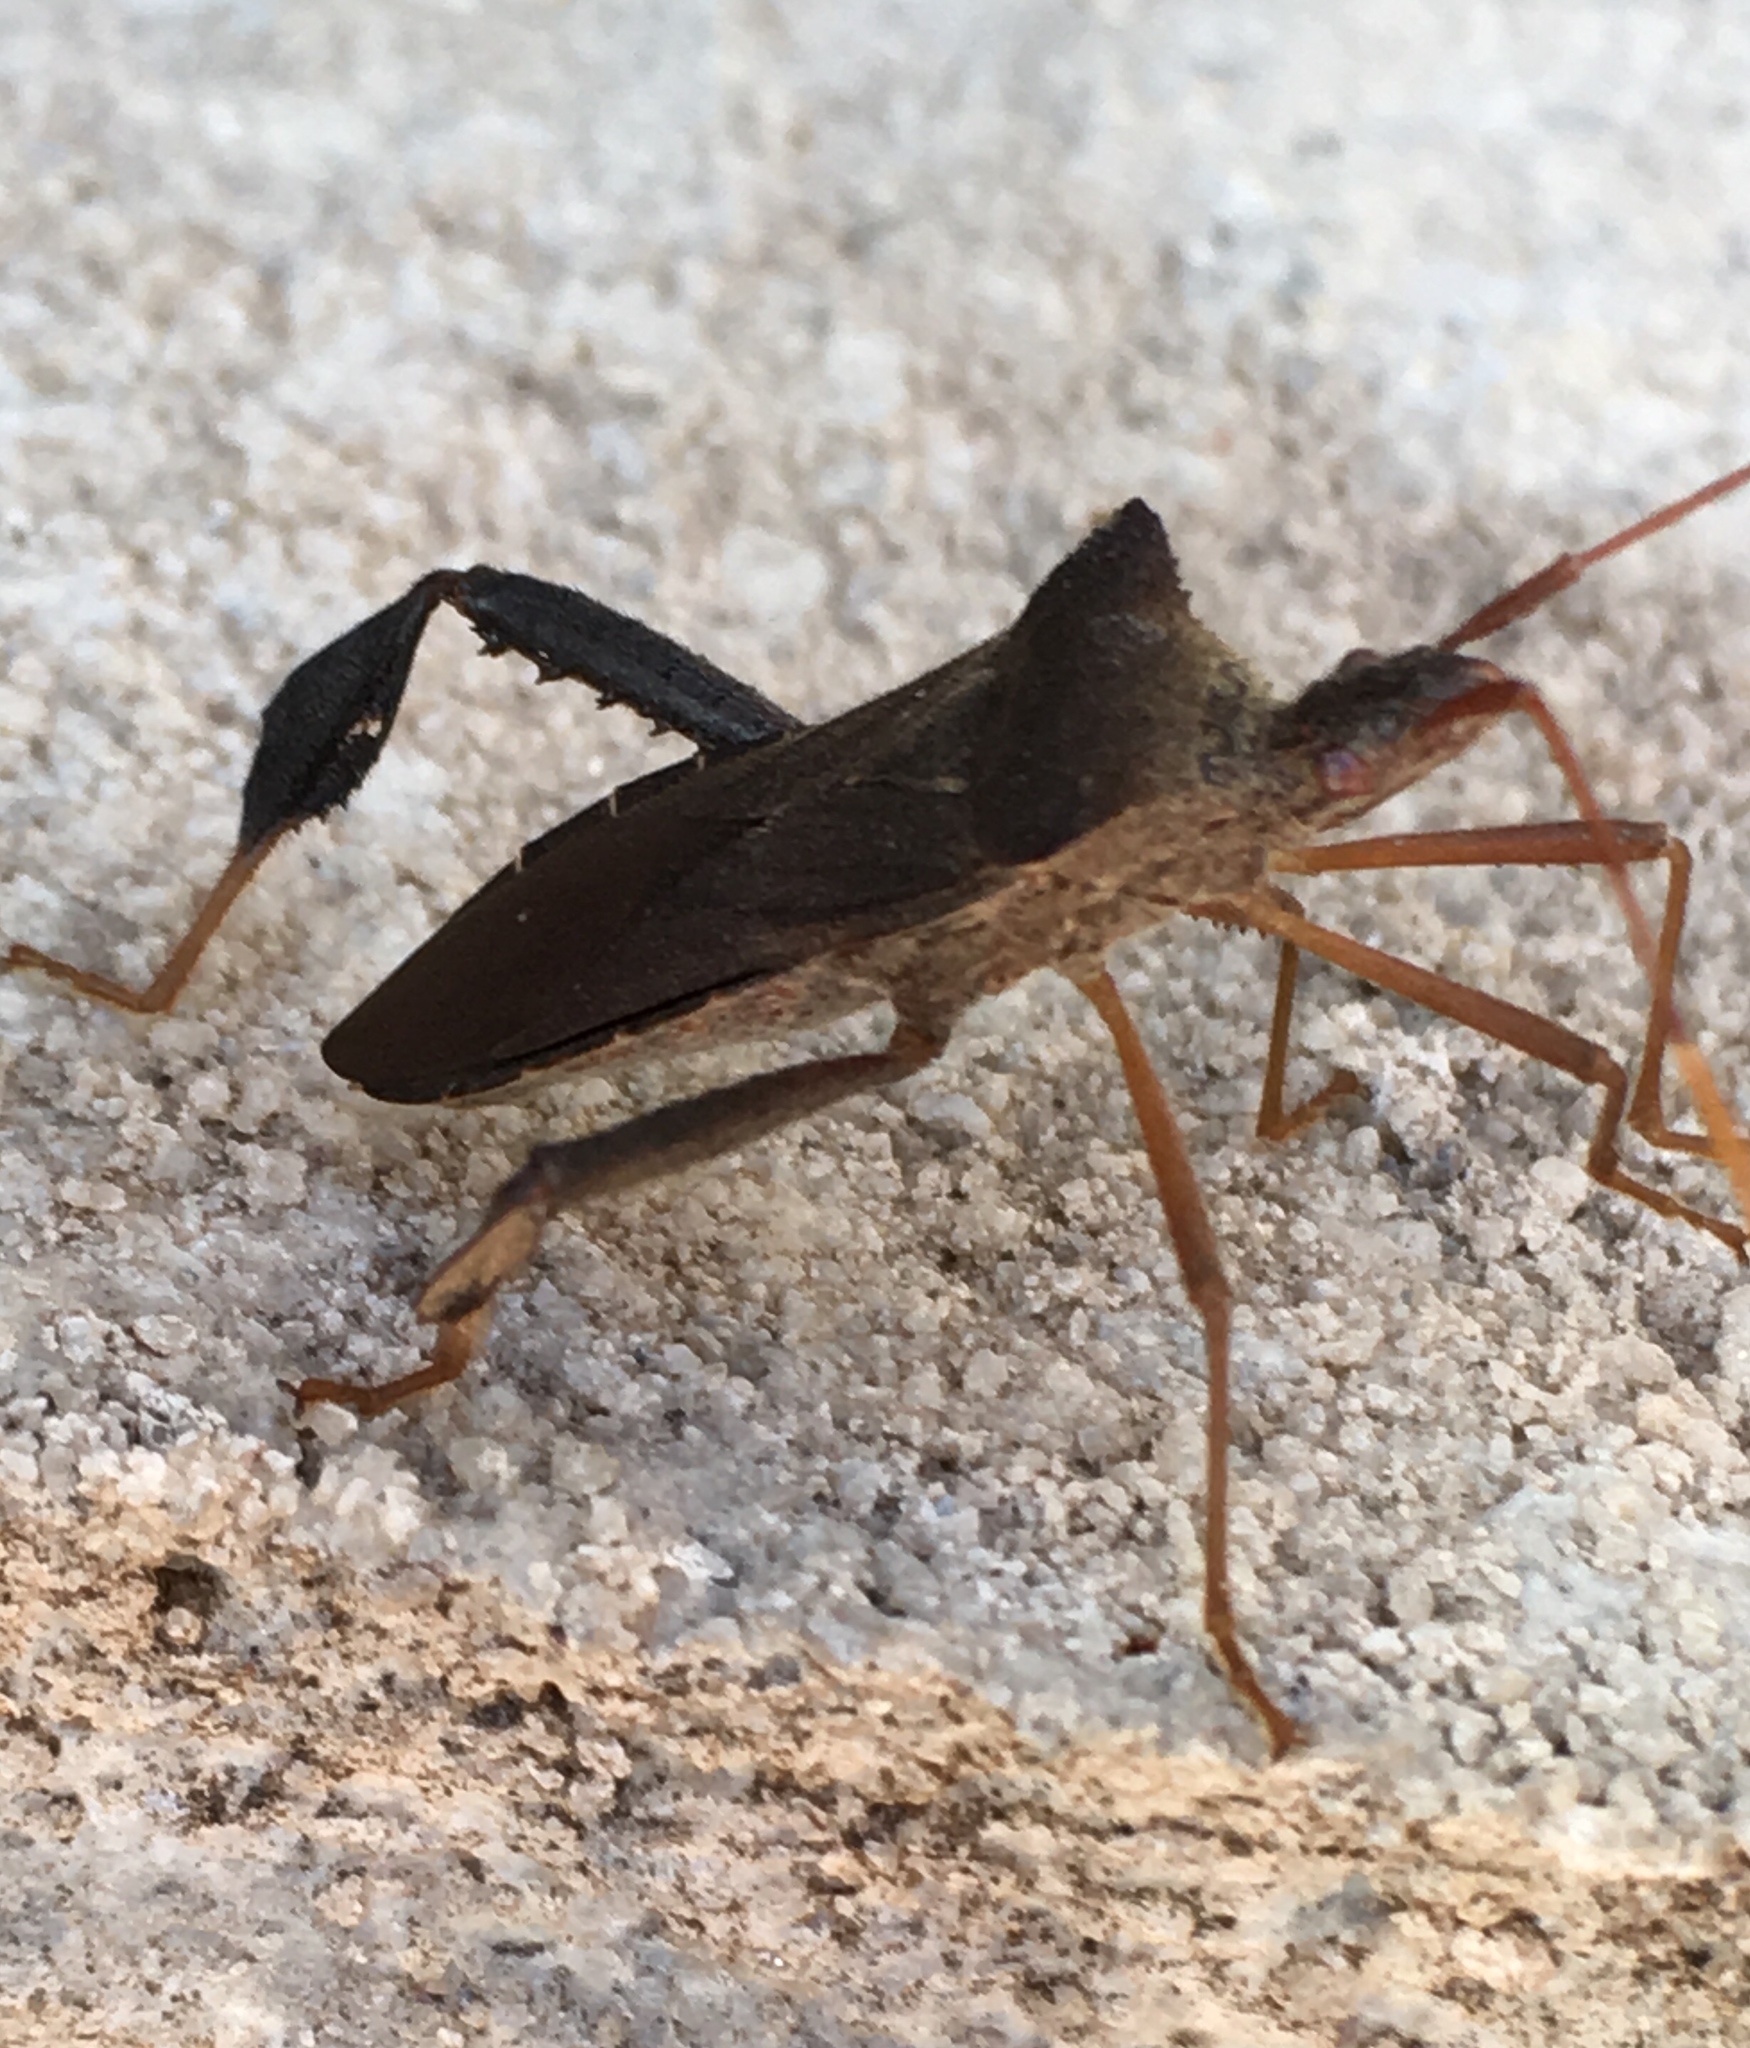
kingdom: Animalia
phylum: Arthropoda
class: Insecta
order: Hemiptera
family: Coreidae
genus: Leptoglossus
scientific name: Leptoglossus fulvicornis
